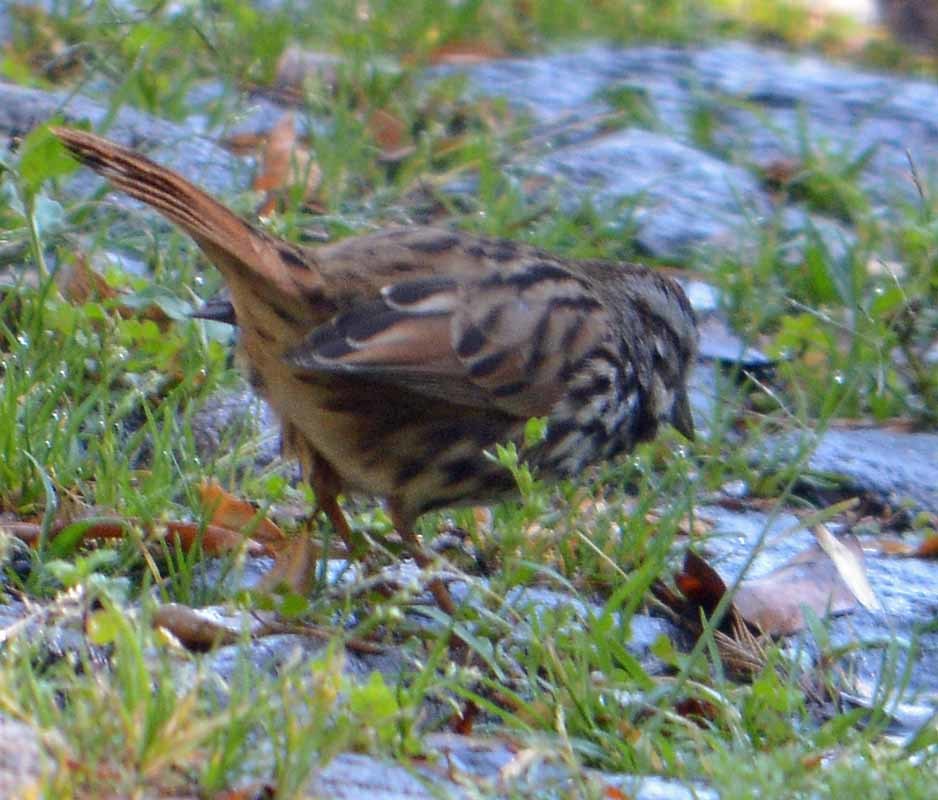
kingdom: Animalia
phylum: Chordata
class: Aves
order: Passeriformes
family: Passerellidae
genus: Melospiza
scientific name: Melospiza melodia
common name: Song sparrow
